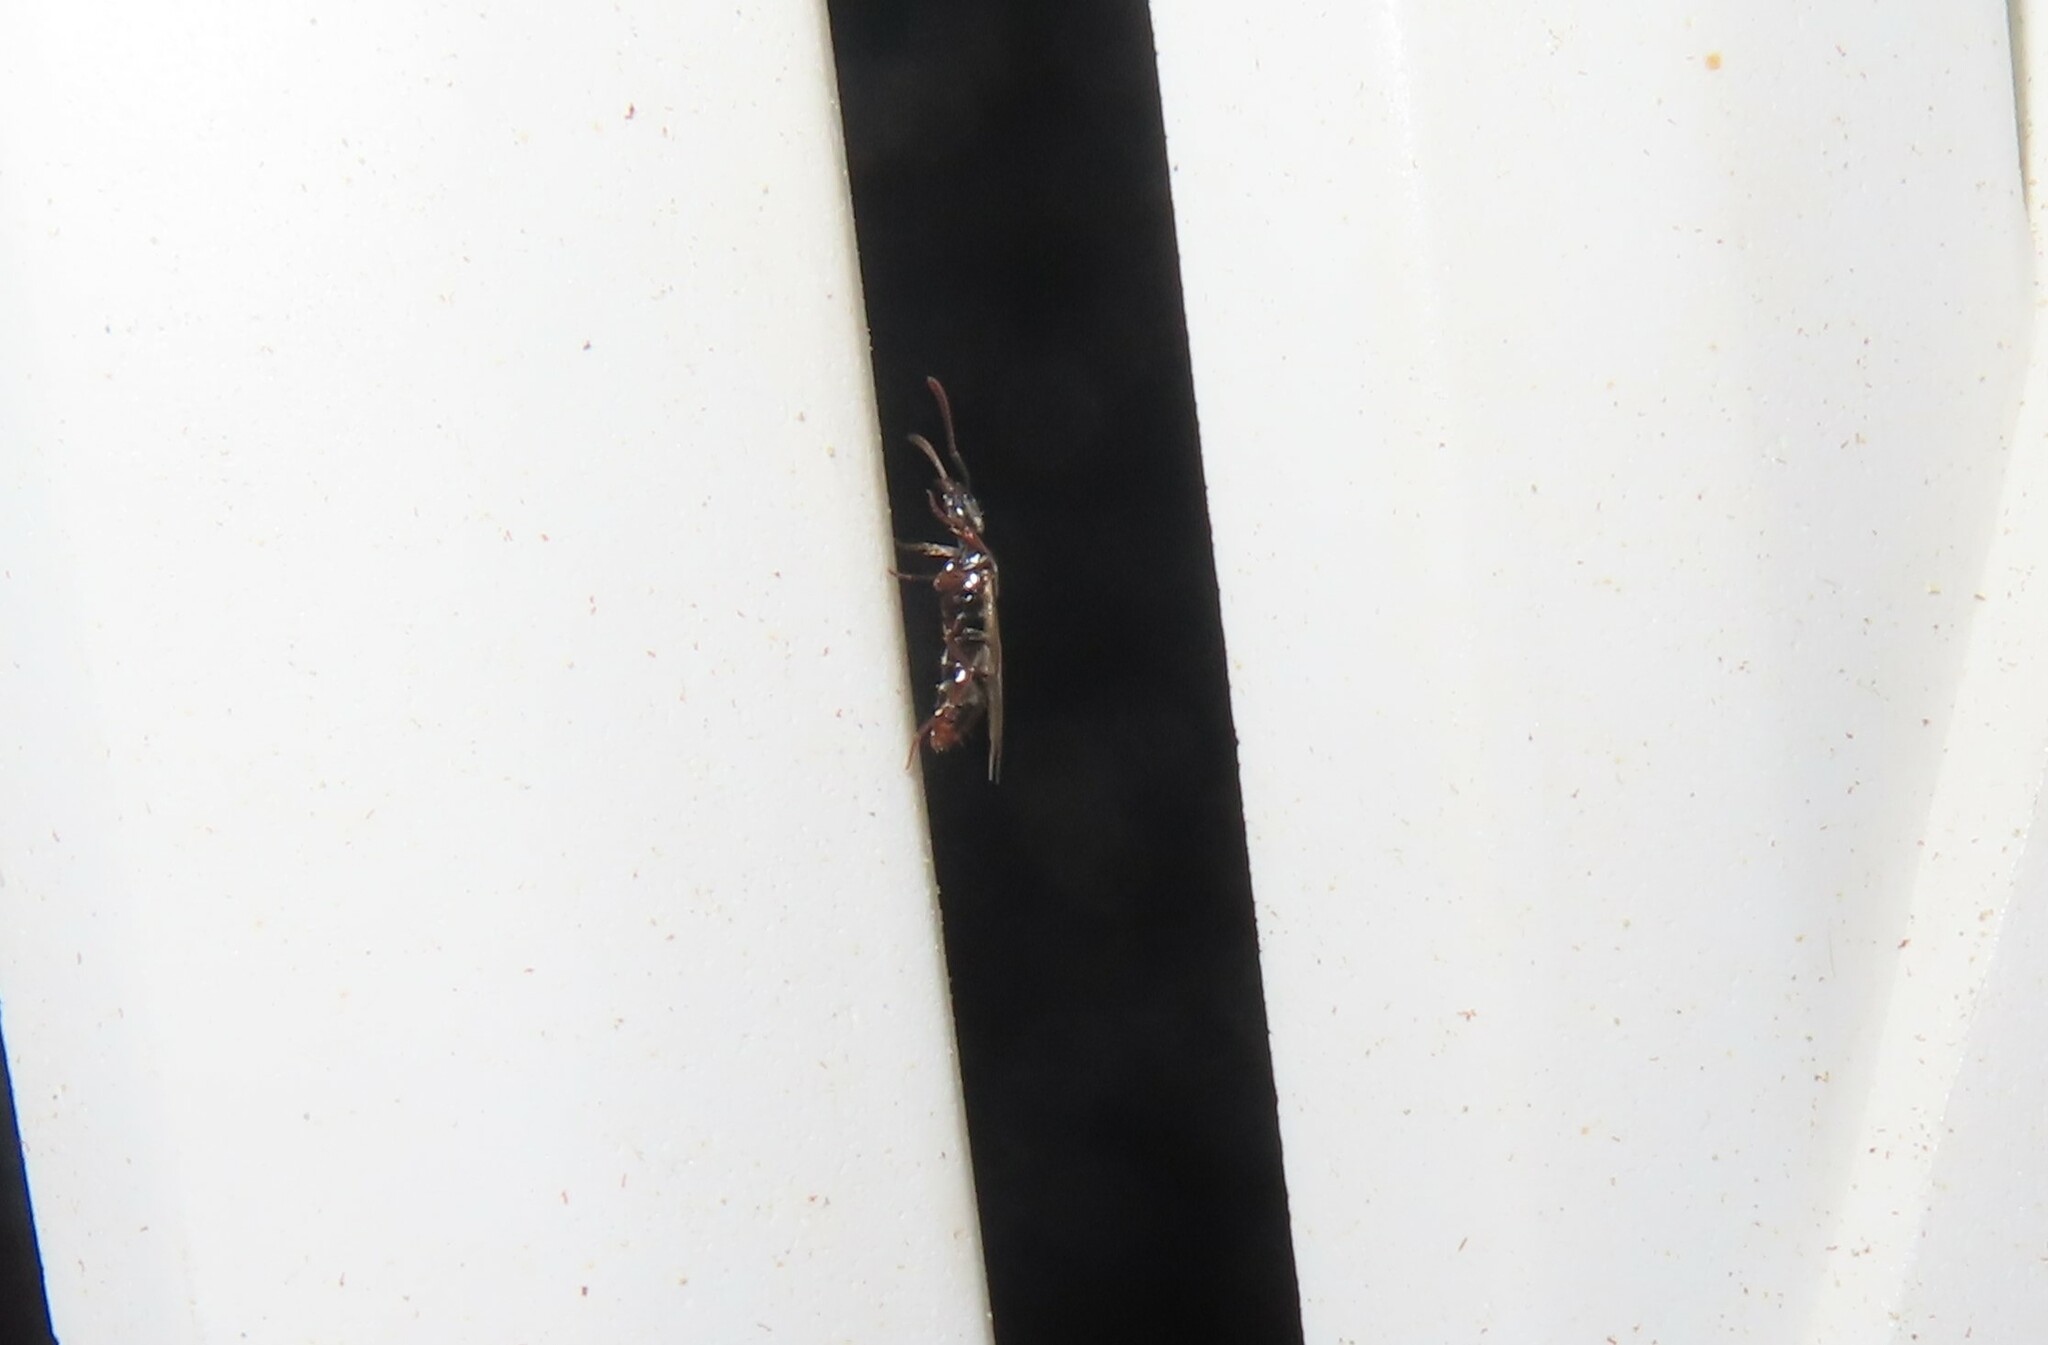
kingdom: Animalia
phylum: Arthropoda
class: Insecta
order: Hymenoptera
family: Formicidae
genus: Pachycondyla
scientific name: Pachycondyla chinensis
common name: Asian needle ant
